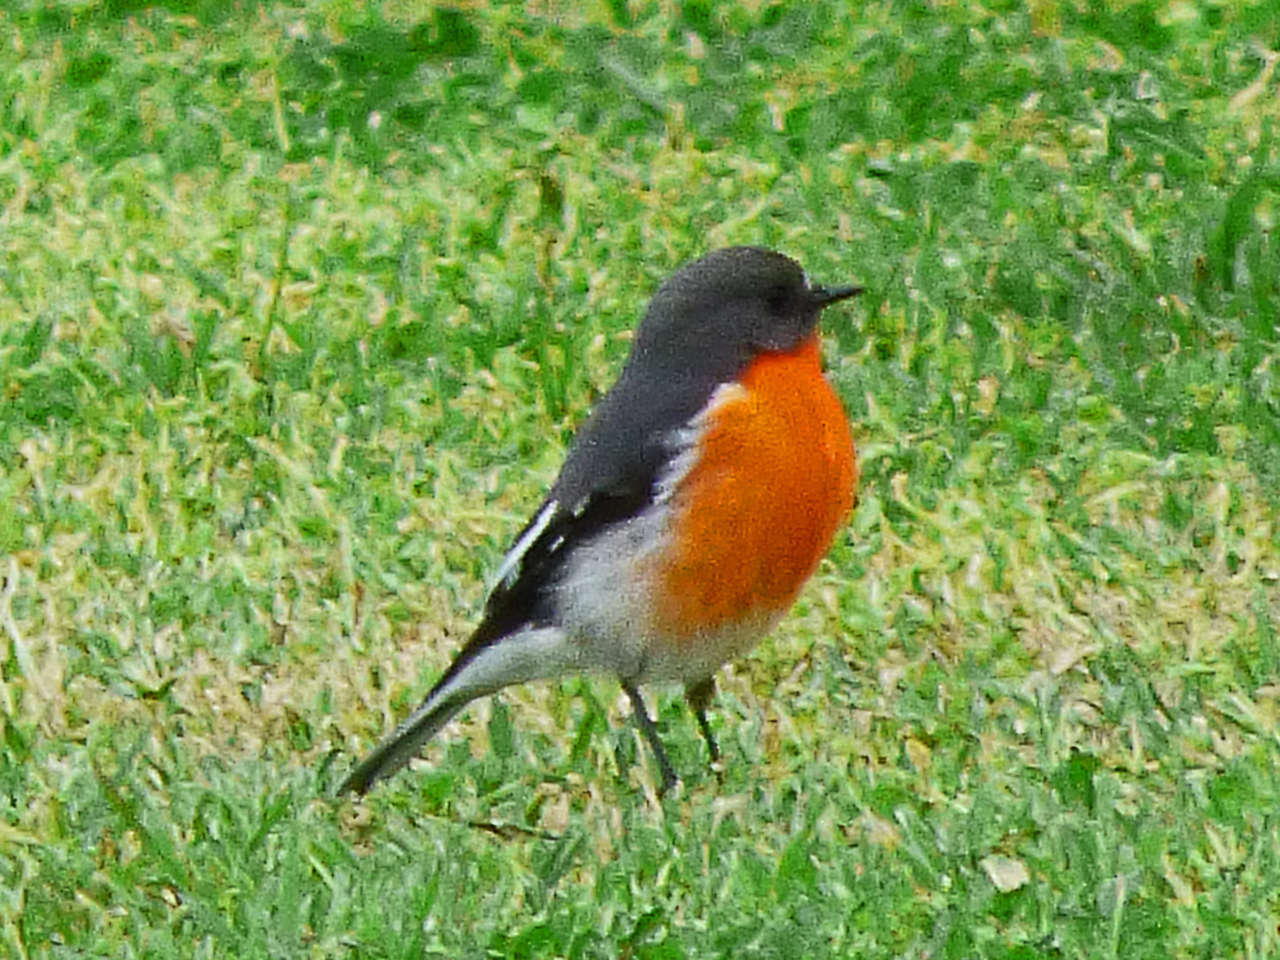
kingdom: Animalia
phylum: Chordata
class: Aves
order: Passeriformes
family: Petroicidae
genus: Petroica
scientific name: Petroica phoenicea
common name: Flame robin
